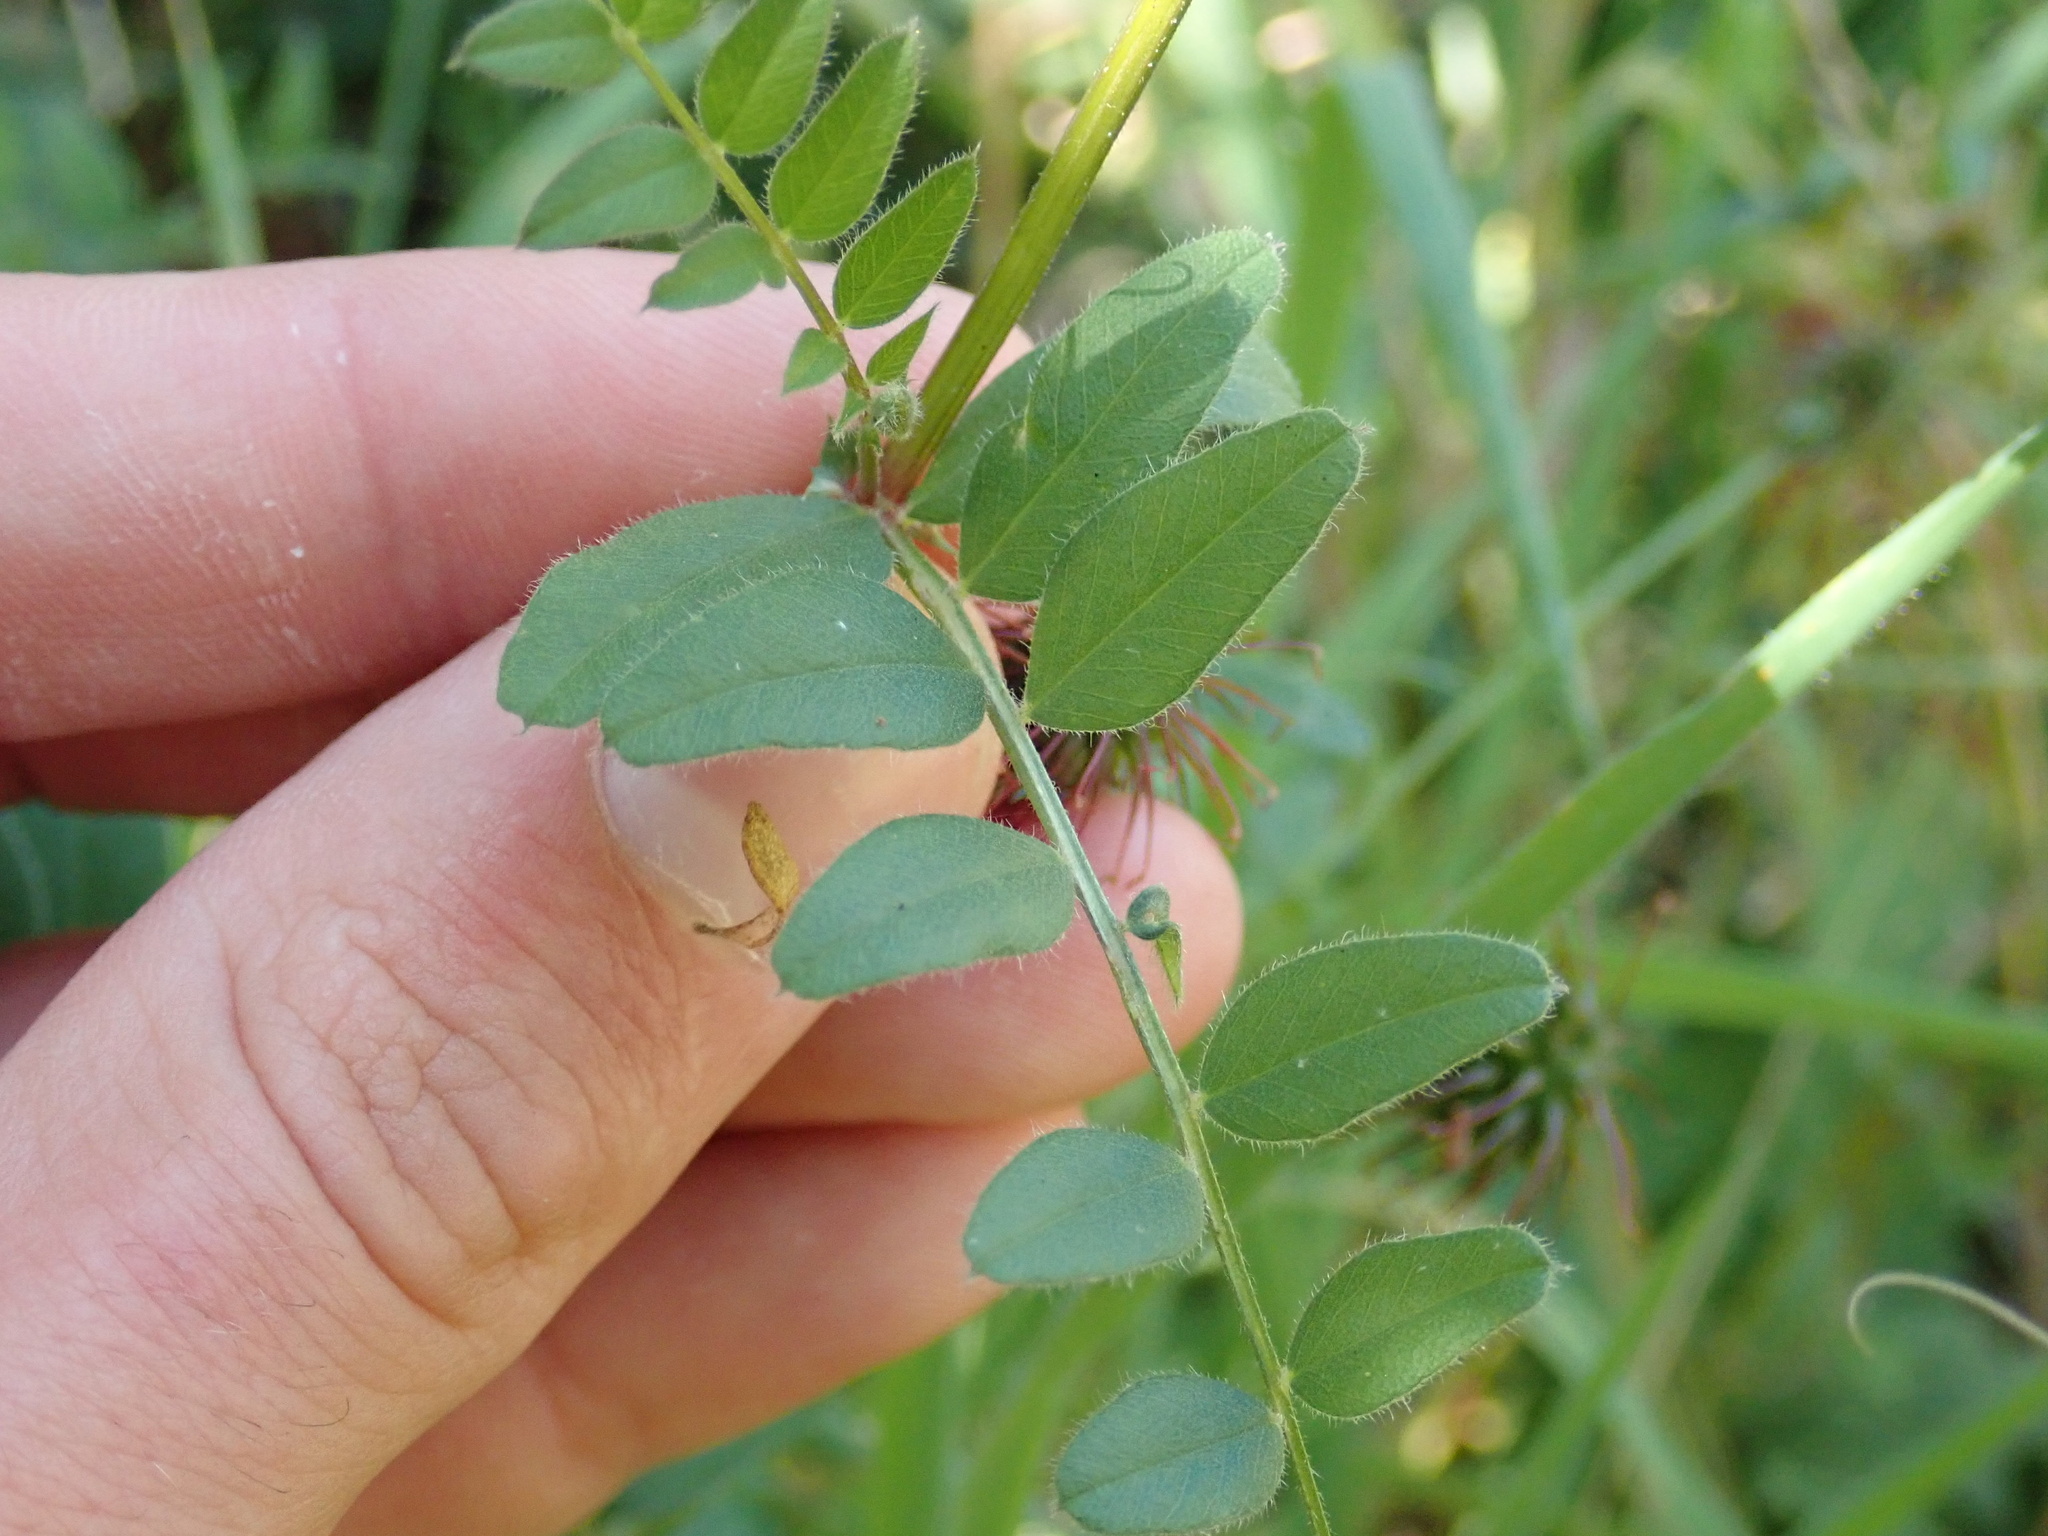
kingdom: Plantae
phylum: Tracheophyta
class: Magnoliopsida
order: Fabales
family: Fabaceae
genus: Vicia
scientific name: Vicia sepium
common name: Bush vetch
